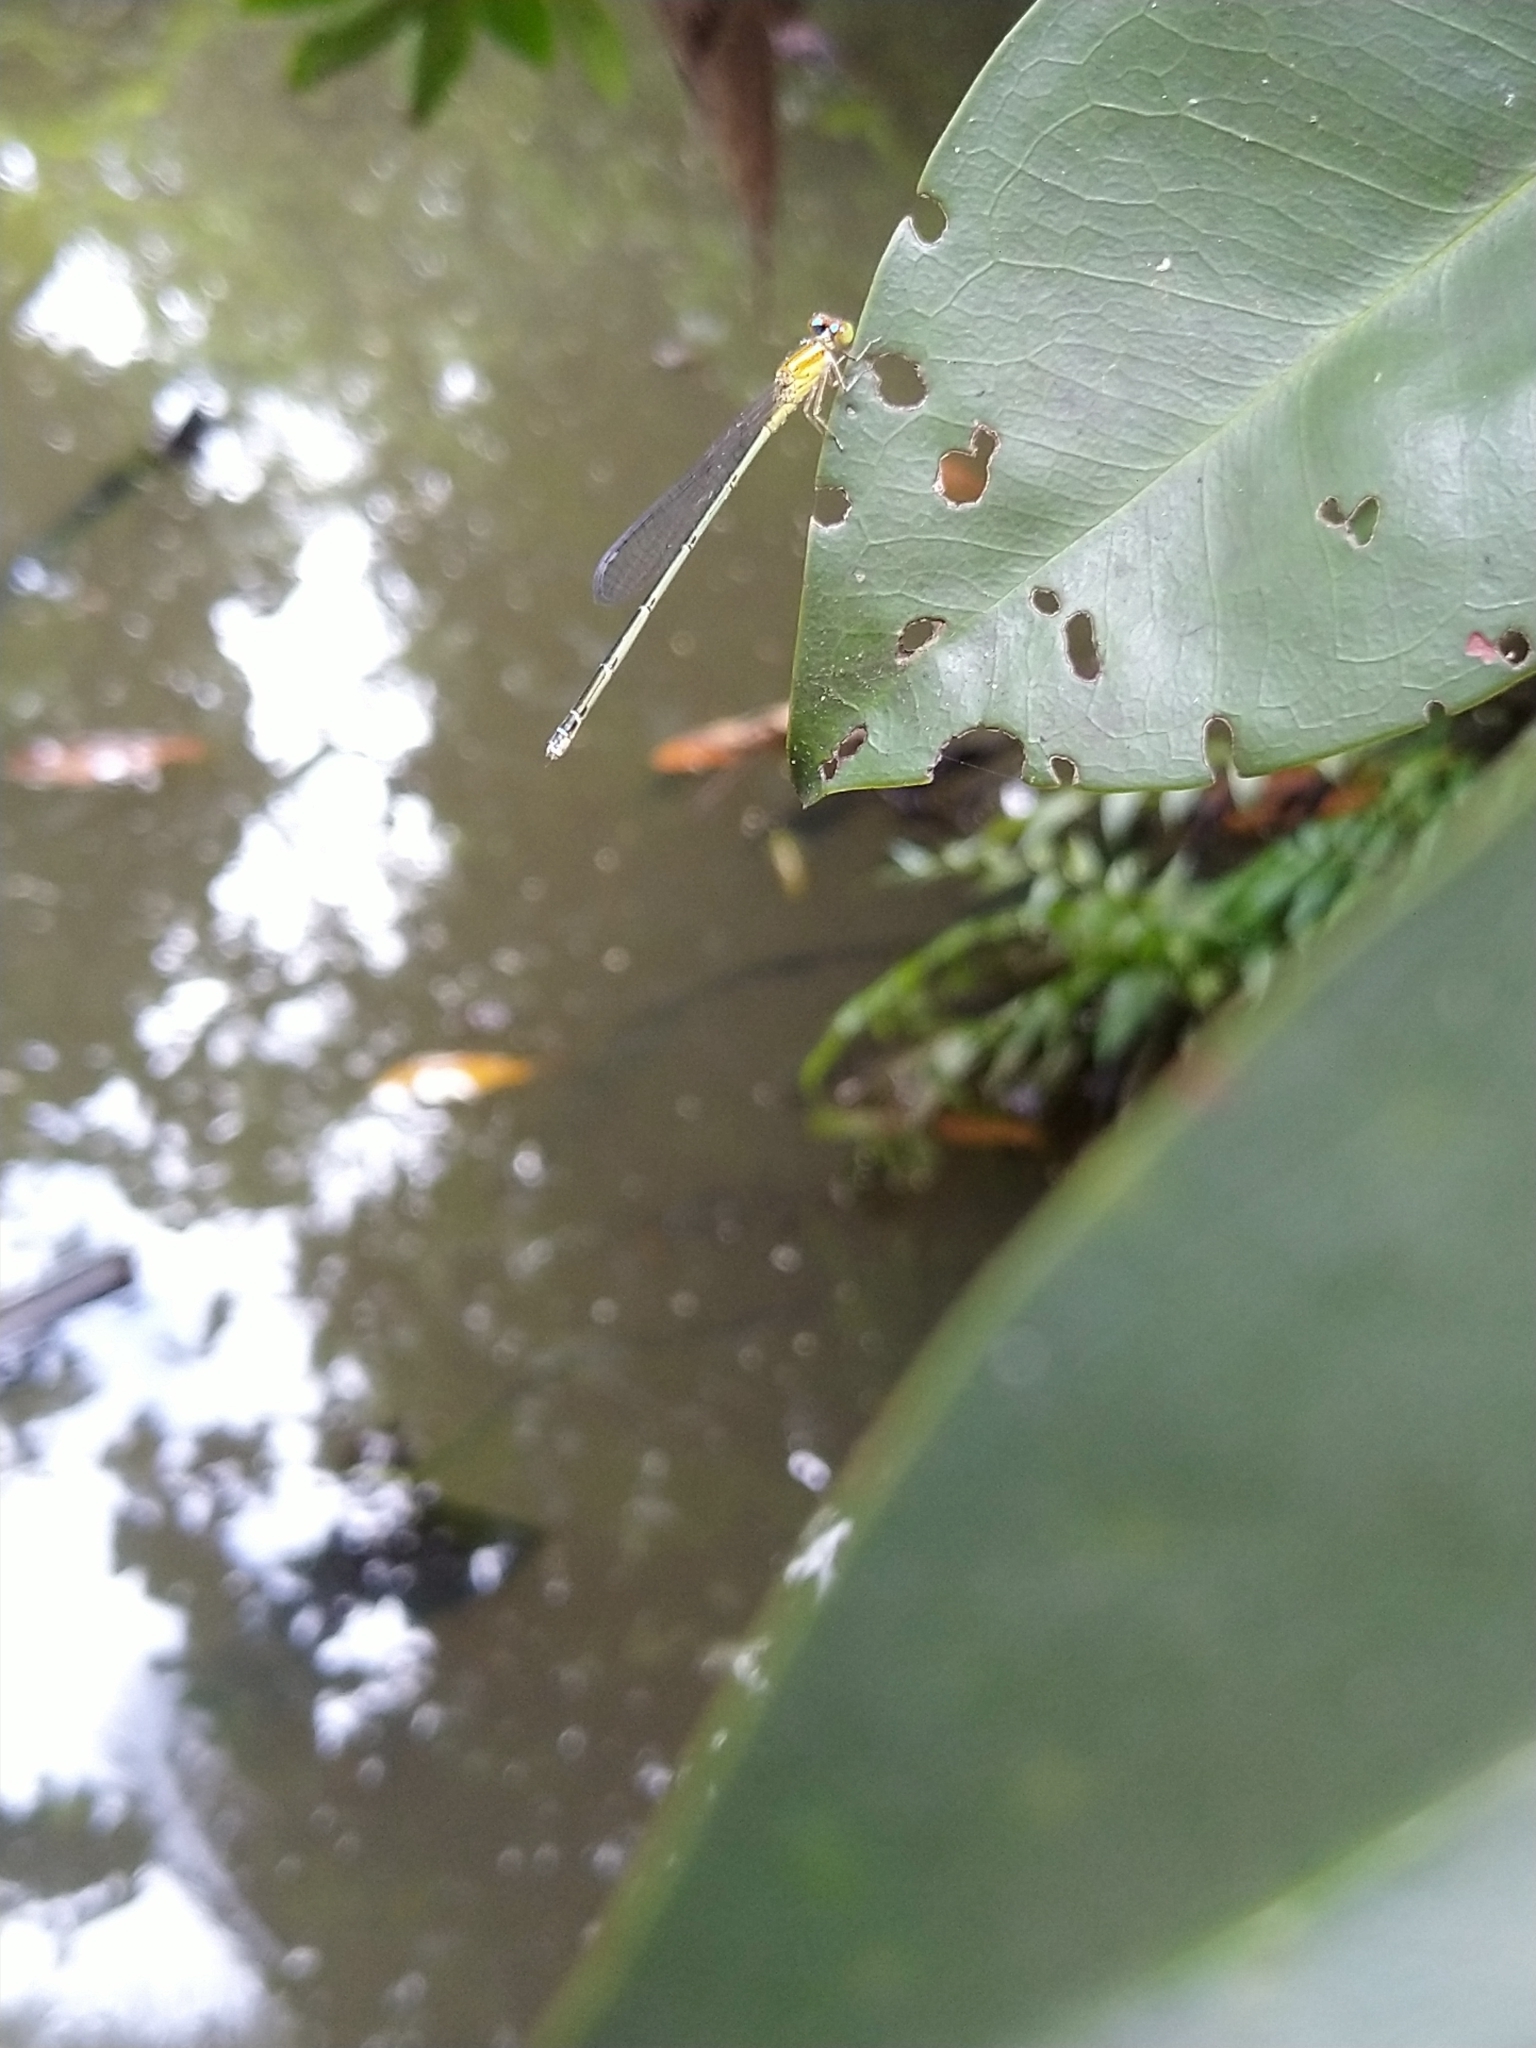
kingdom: Animalia
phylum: Arthropoda
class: Insecta
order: Odonata
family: Coenagrionidae
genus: Pseudagrion
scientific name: Pseudagrion microcephalum
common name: Blue riverdamsel
